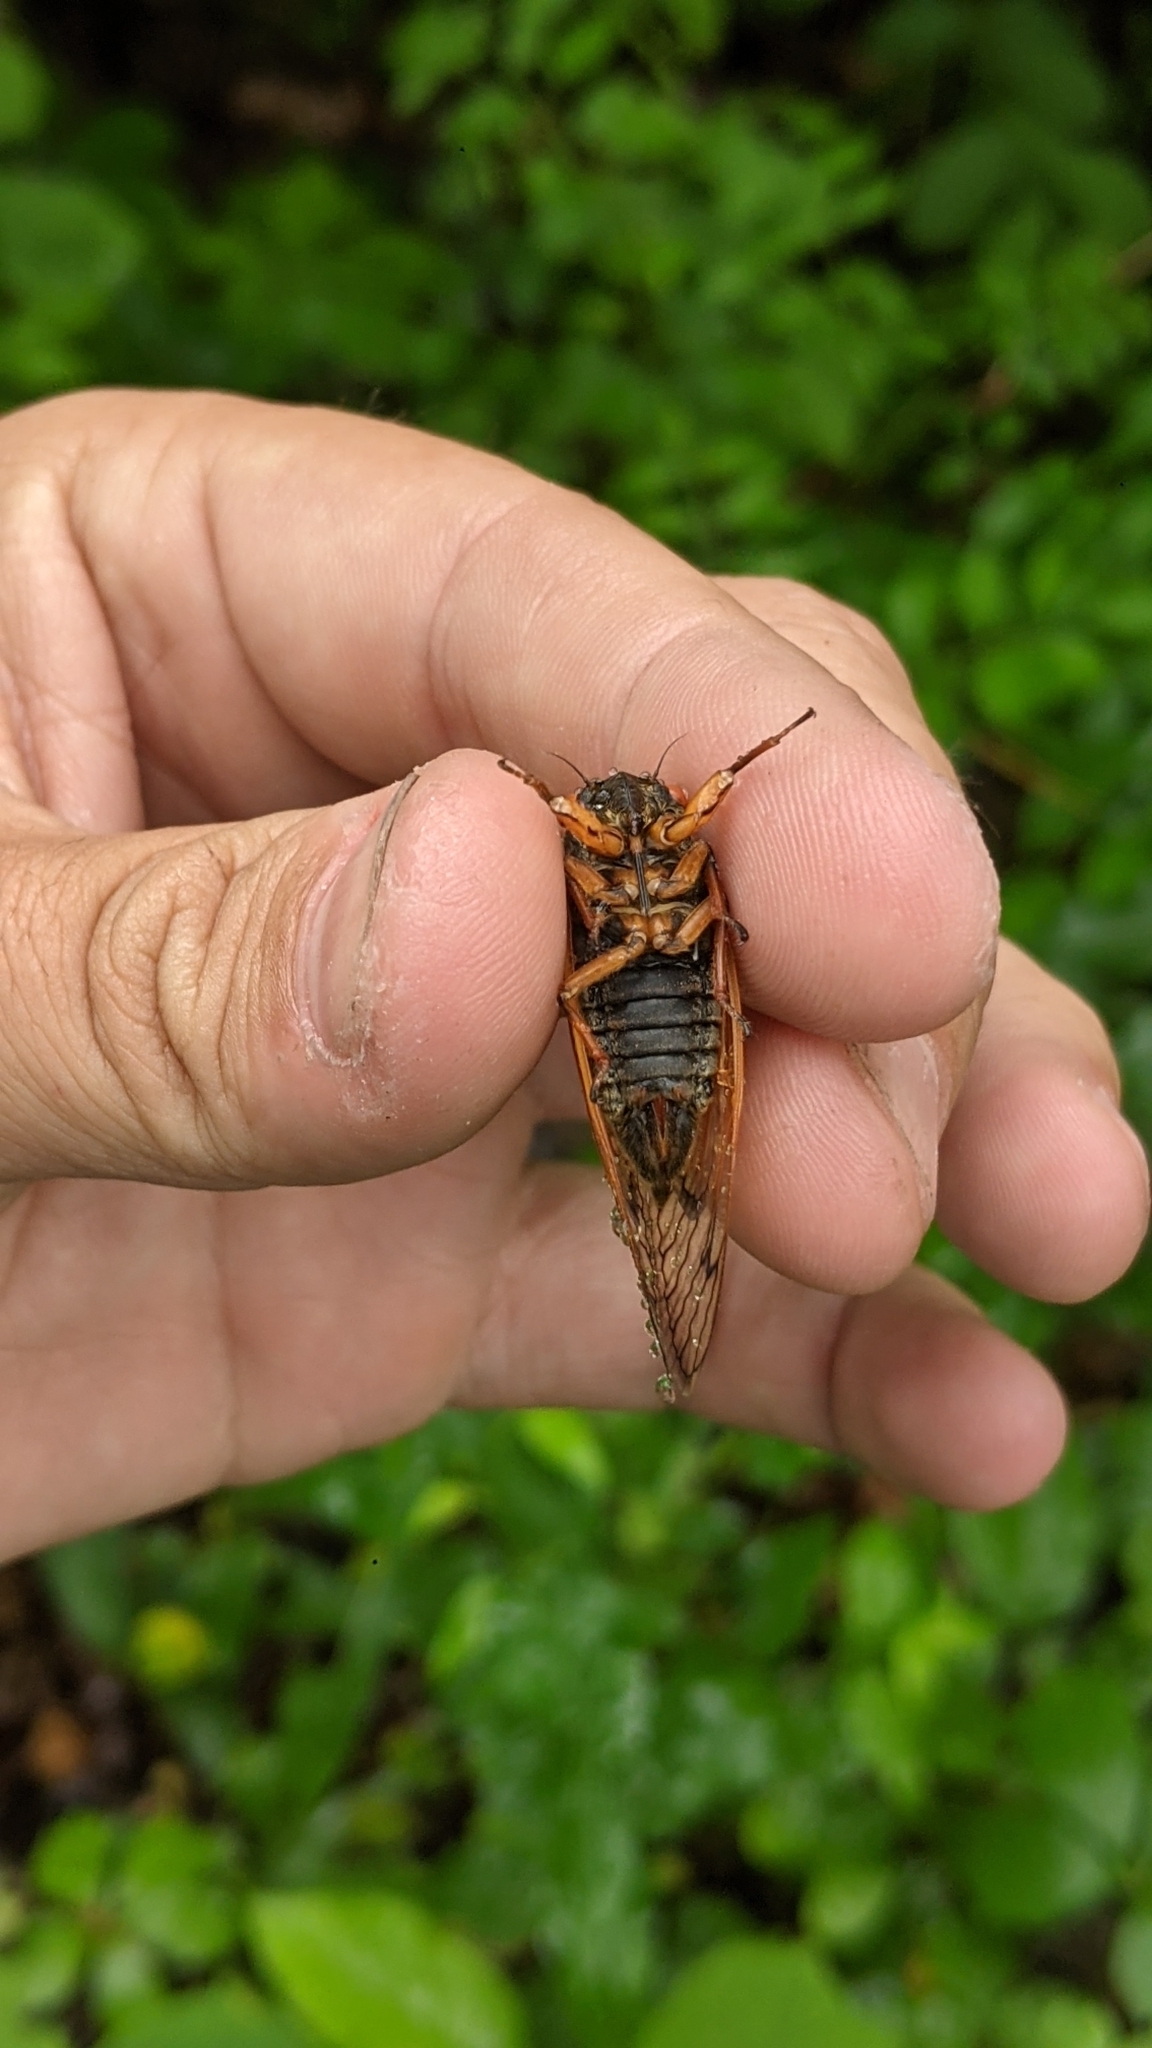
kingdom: Animalia
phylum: Arthropoda
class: Insecta
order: Hemiptera
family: Cicadidae
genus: Magicicada
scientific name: Magicicada cassini
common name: Cassin's 17-year cicada
